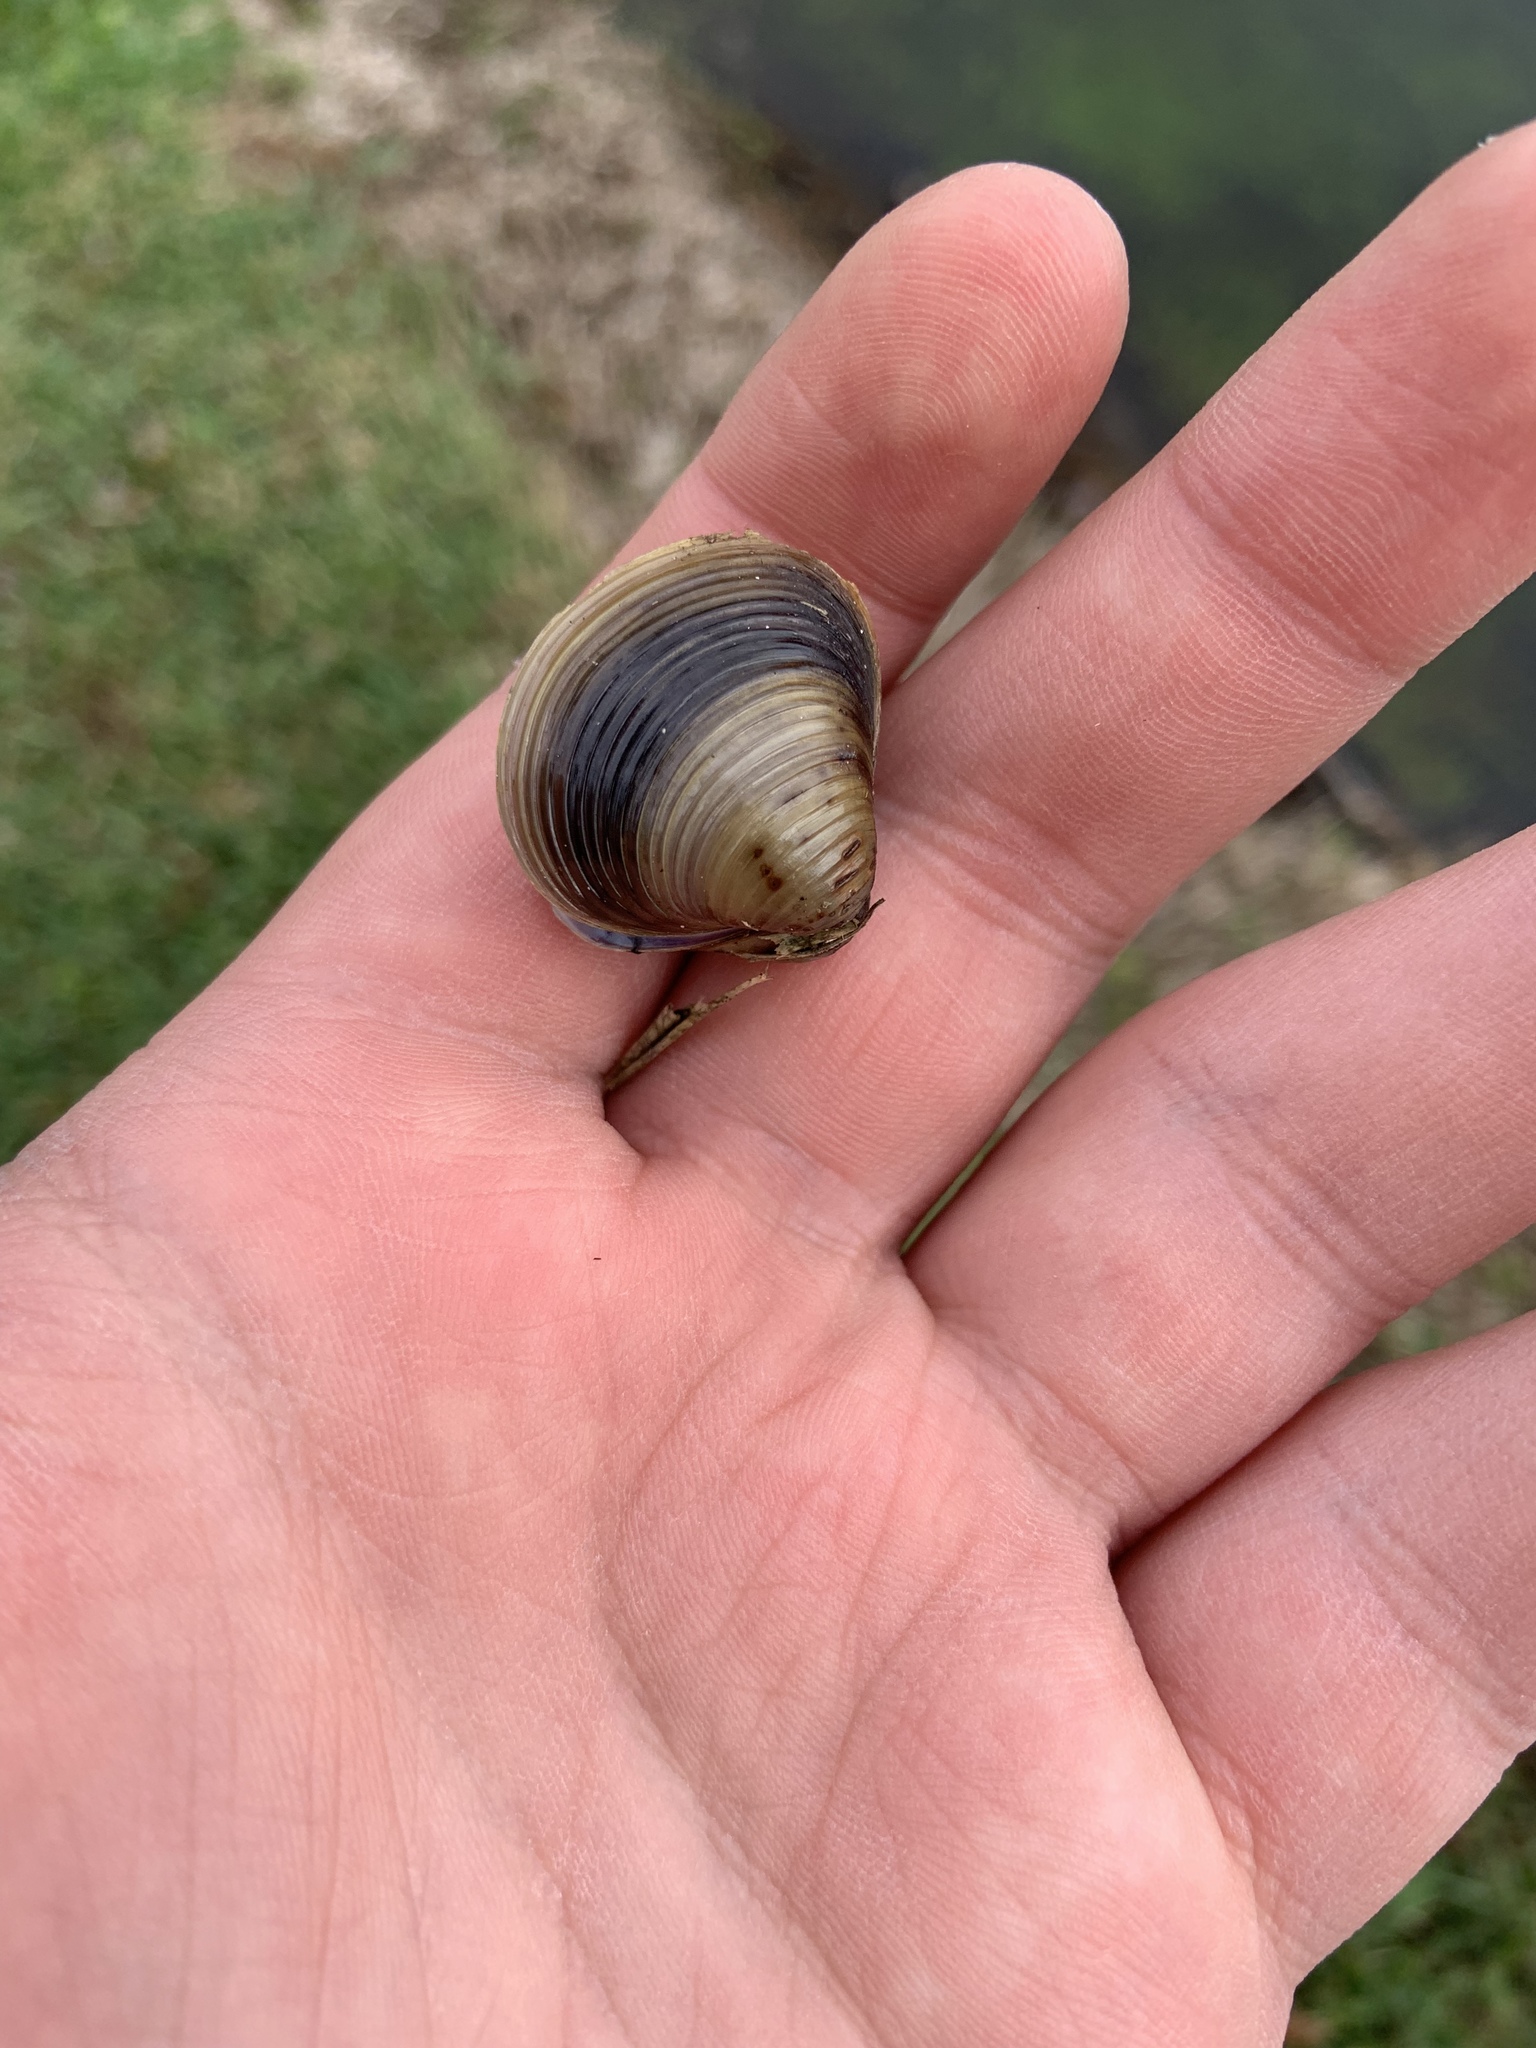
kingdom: Animalia
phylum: Mollusca
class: Bivalvia
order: Venerida
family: Cyrenidae
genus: Corbicula
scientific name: Corbicula fluminea
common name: Asian clam
